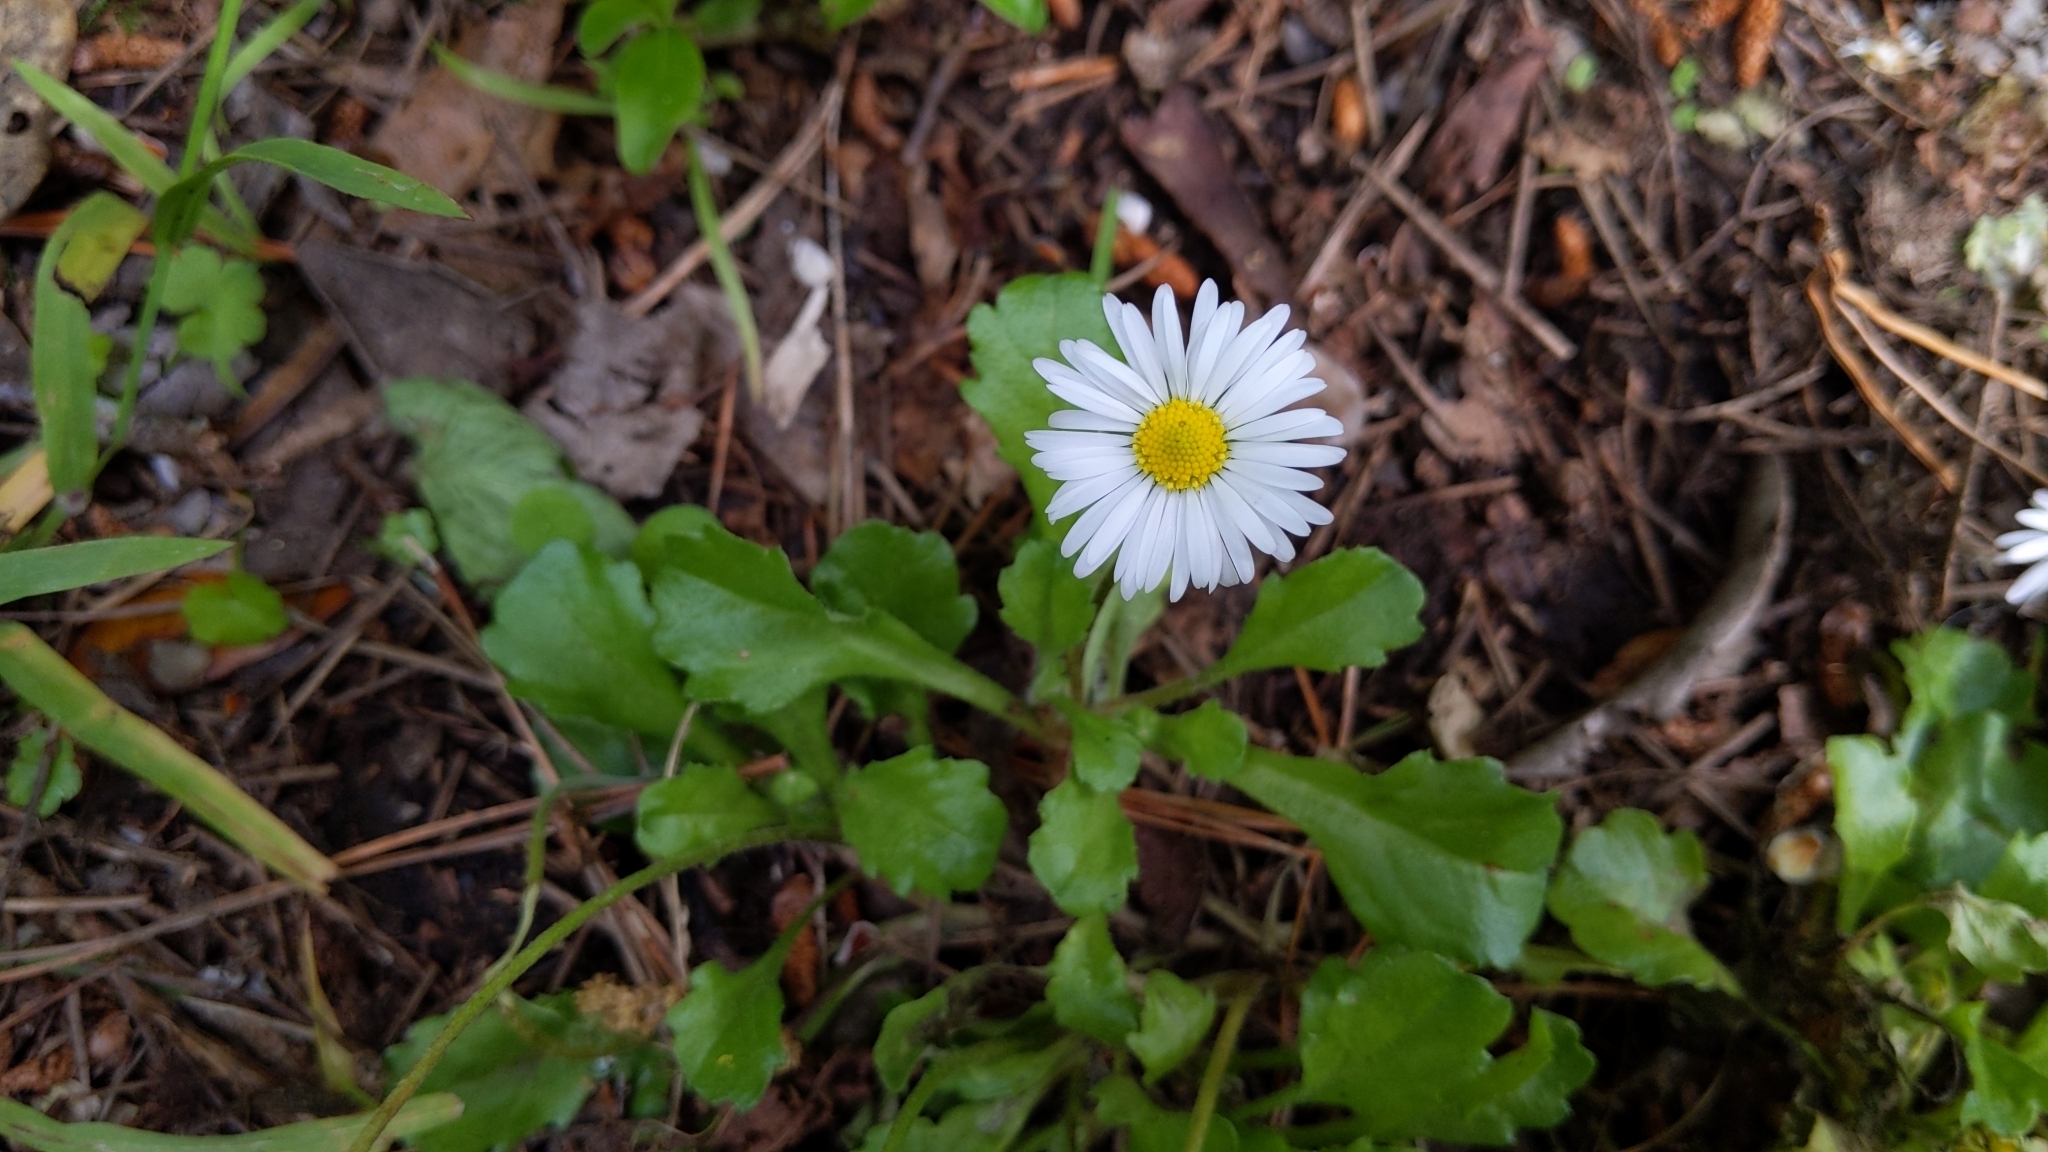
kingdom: Plantae
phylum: Tracheophyta
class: Magnoliopsida
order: Asterales
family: Asteraceae
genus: Bellis
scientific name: Bellis perennis
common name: Lawndaisy
